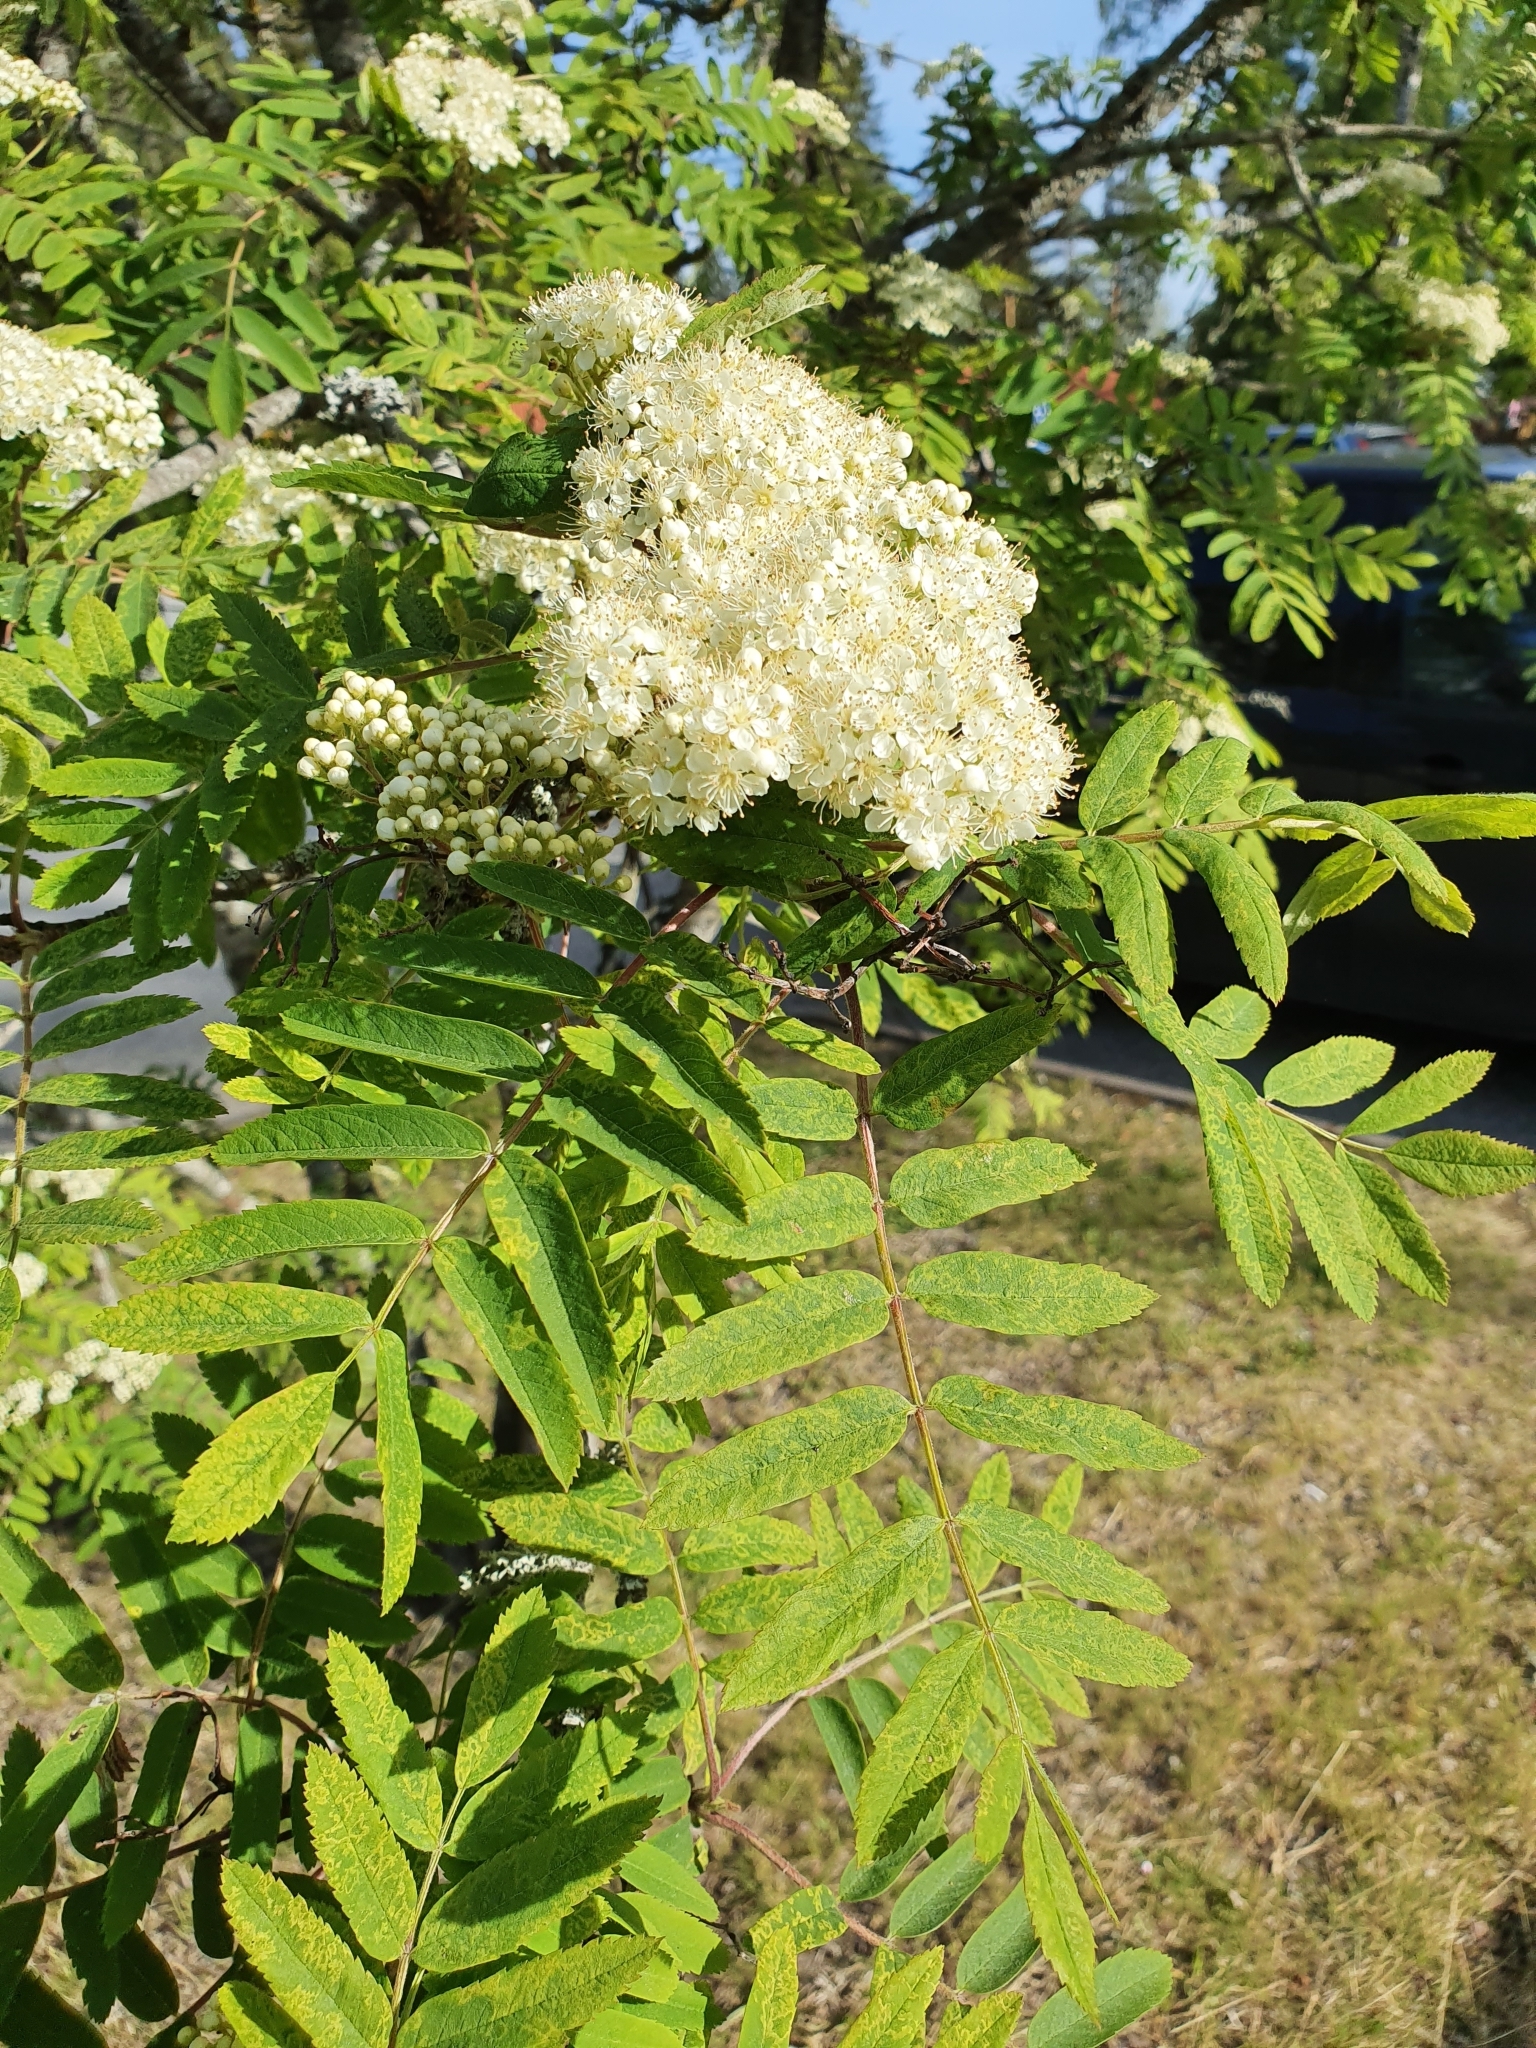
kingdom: Plantae
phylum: Tracheophyta
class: Magnoliopsida
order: Rosales
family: Rosaceae
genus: Sorbus
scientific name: Sorbus aucuparia
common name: Rowan
